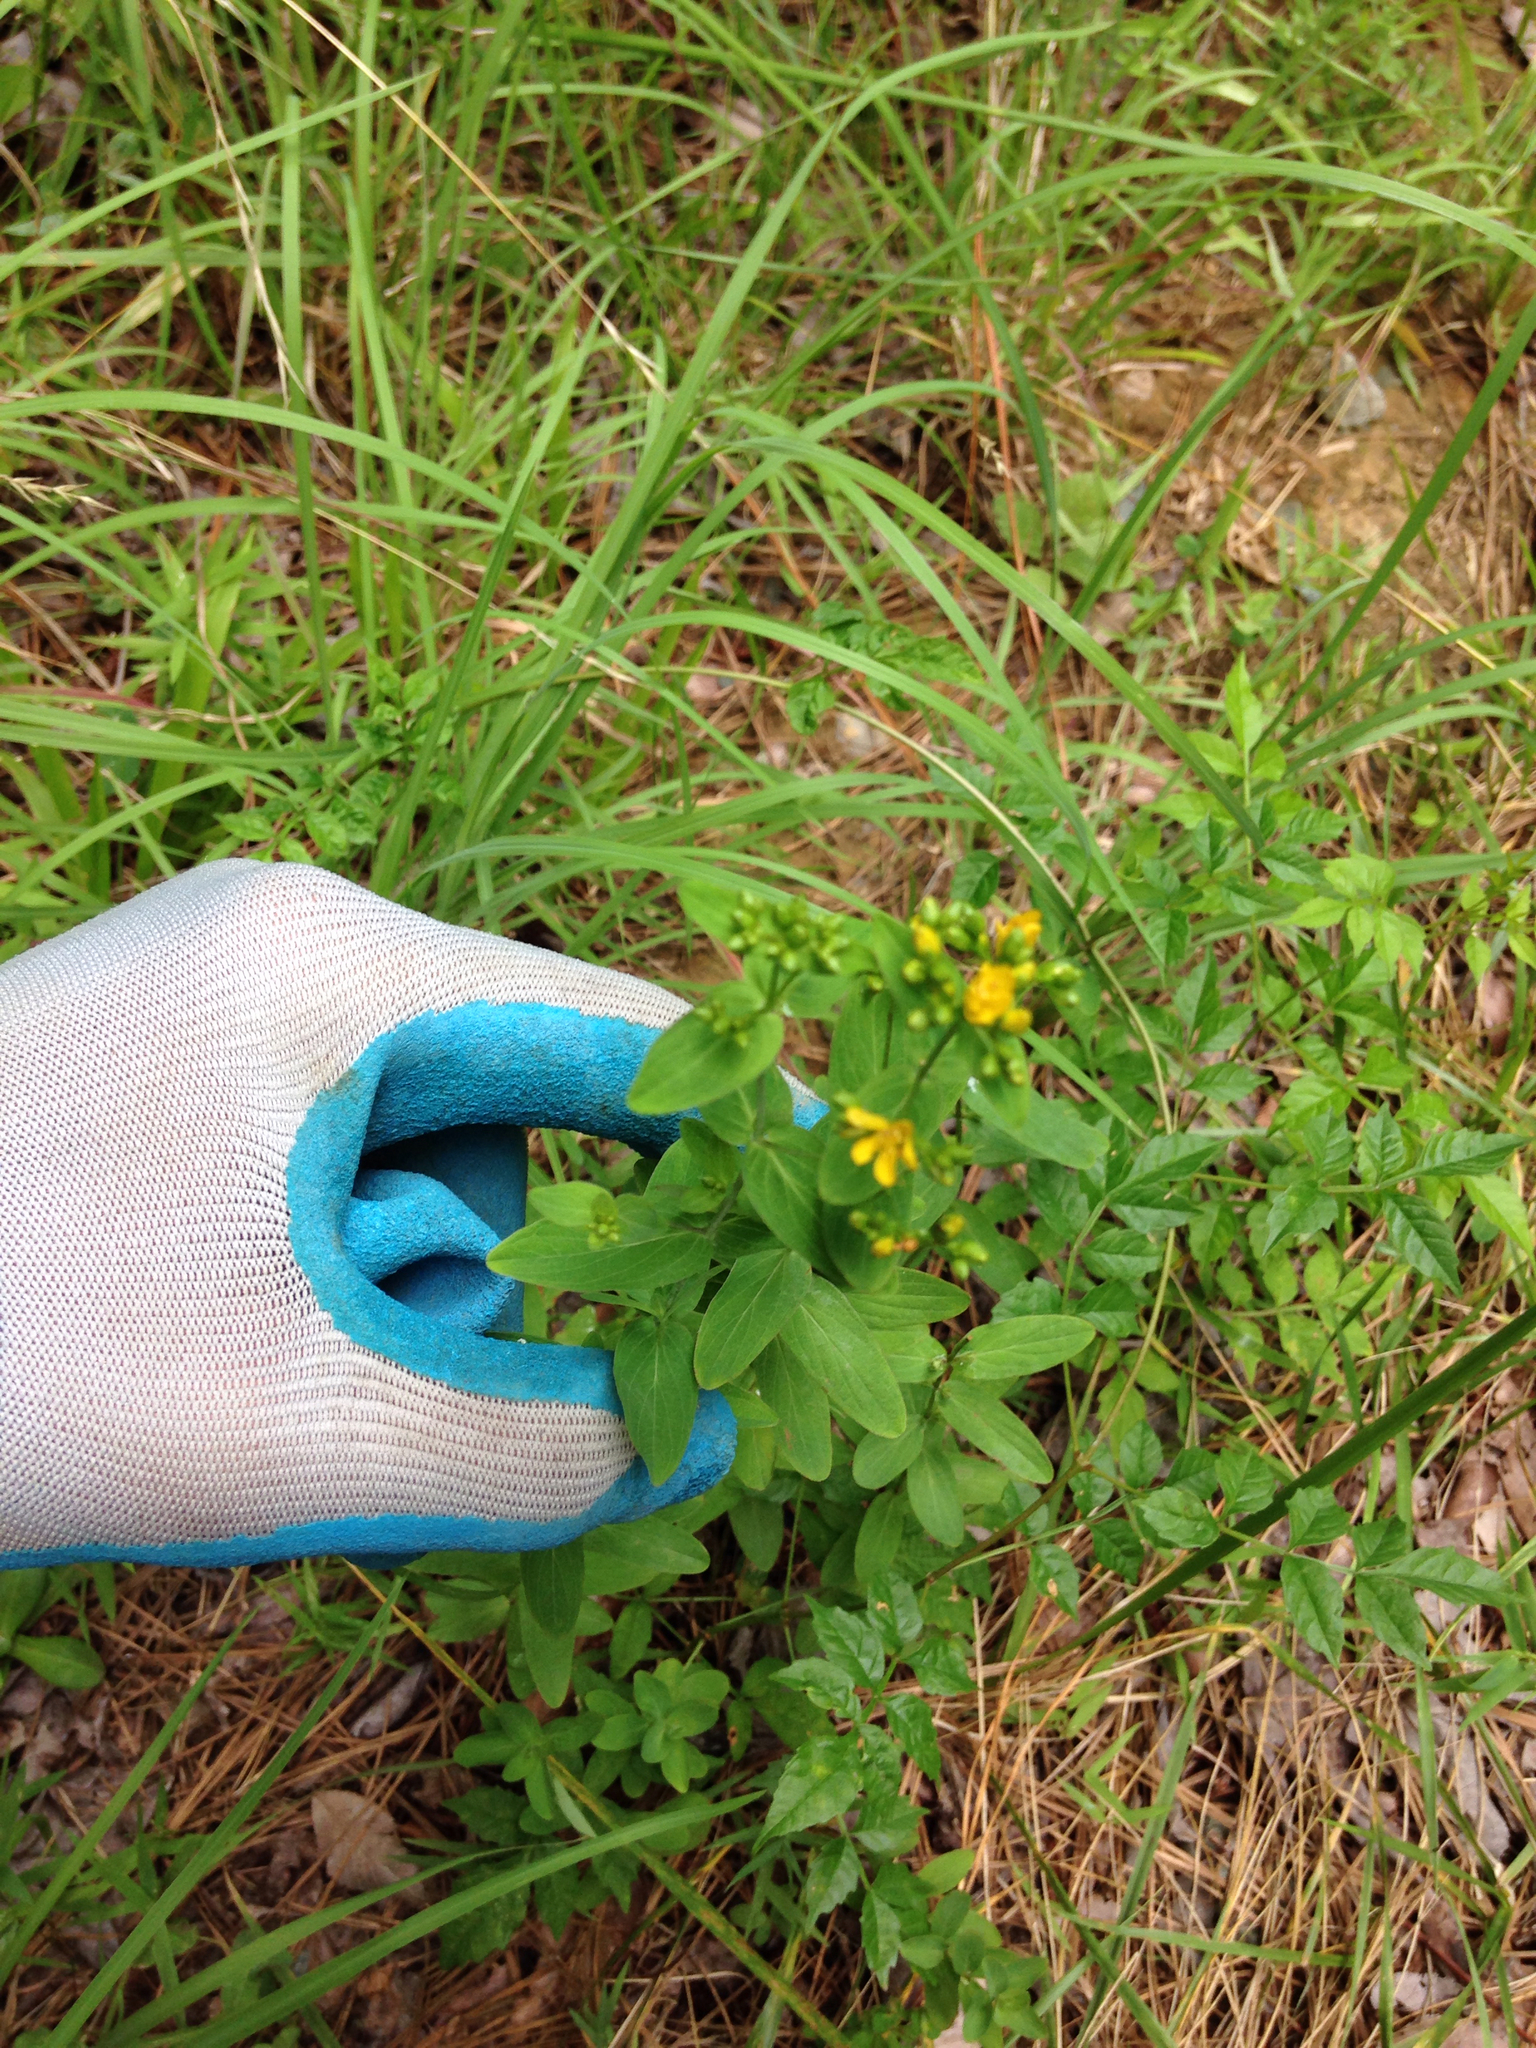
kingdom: Plantae
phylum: Tracheophyta
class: Magnoliopsida
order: Malpighiales
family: Hypericaceae
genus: Hypericum
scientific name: Hypericum punctatum
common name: Spotted st. john's-wort
